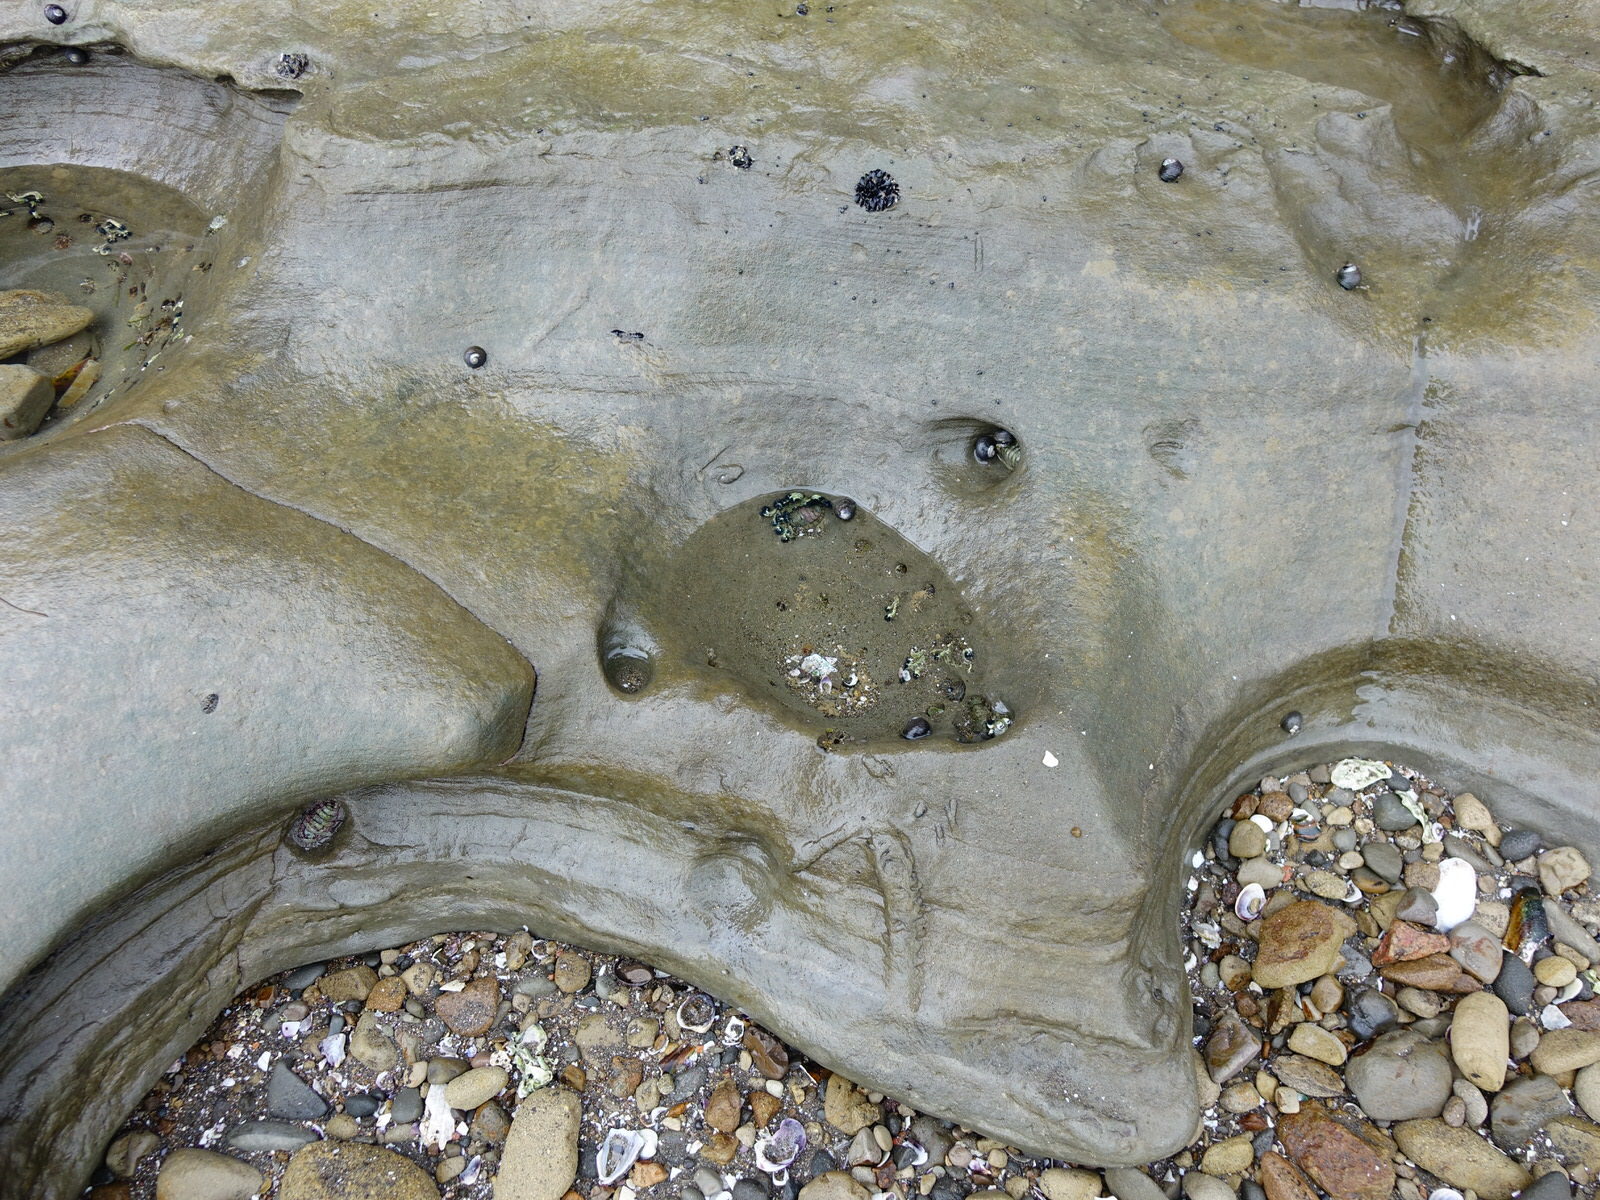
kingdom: Animalia
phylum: Annelida
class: Polychaeta
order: Sabellida
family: Serpulidae
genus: Spirobranchus
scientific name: Spirobranchus cariniferus
